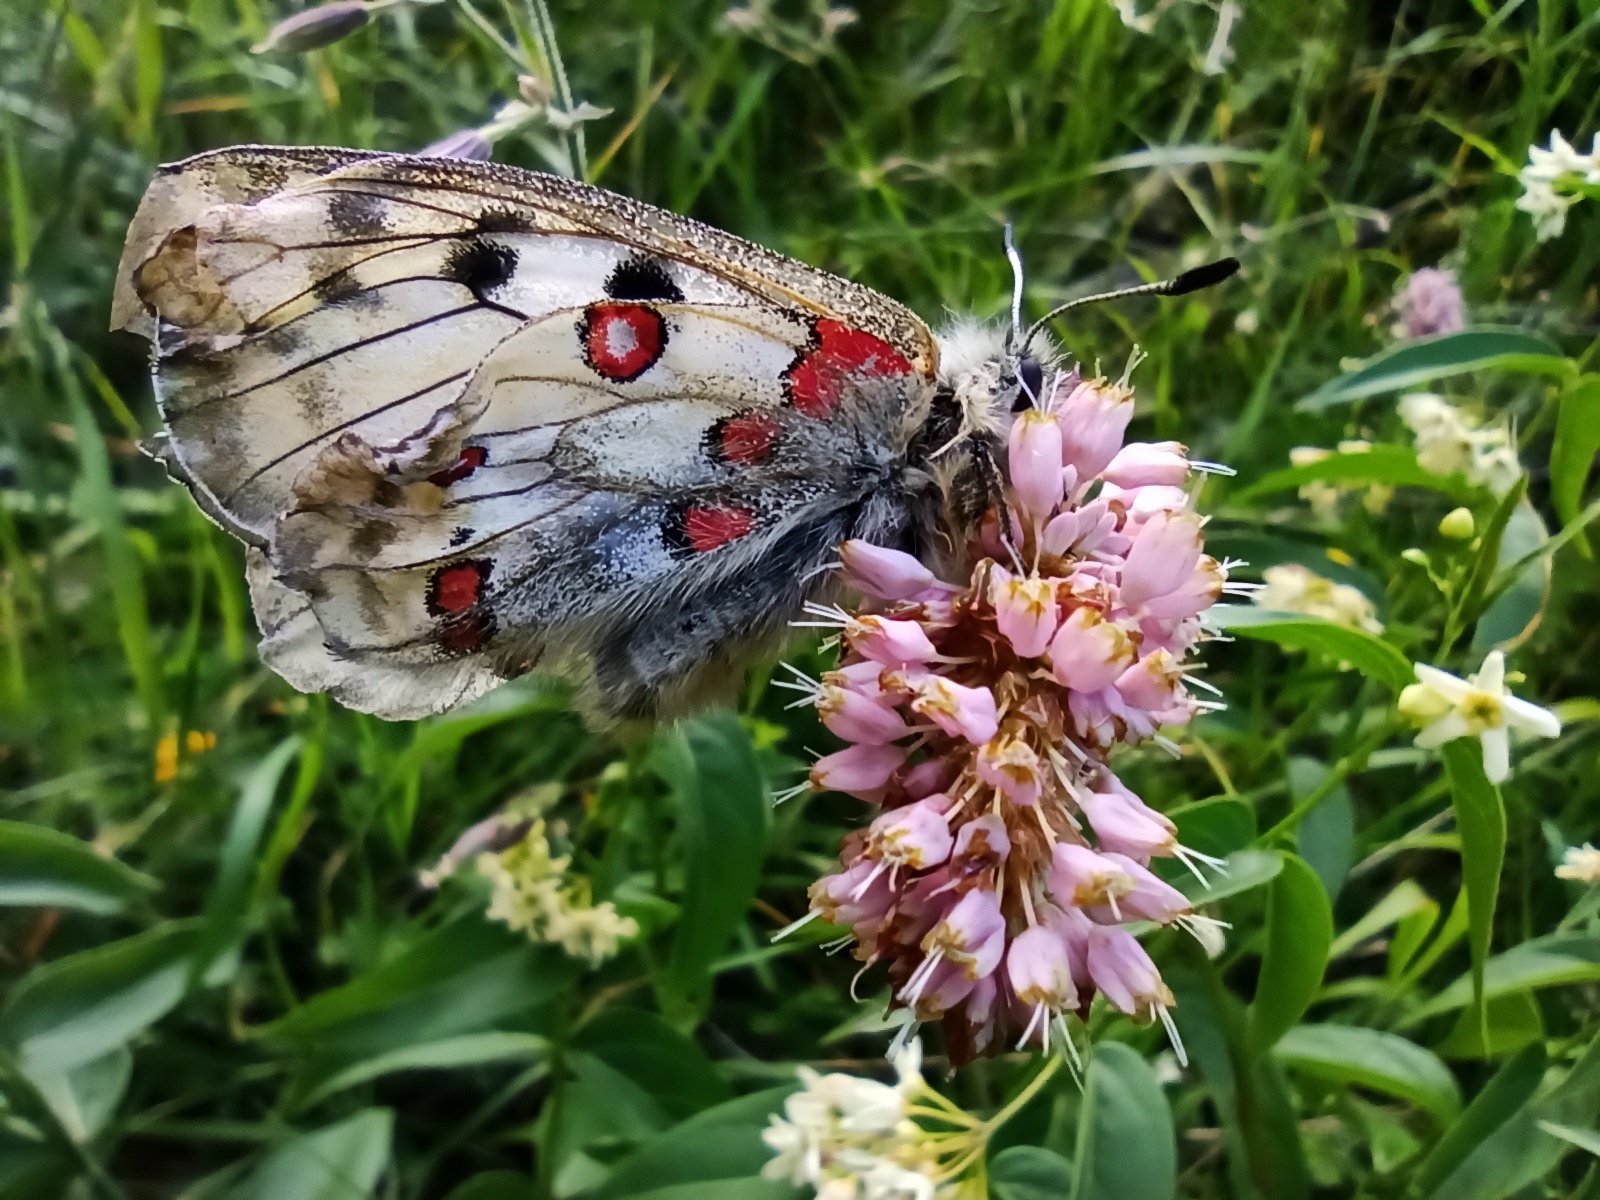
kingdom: Animalia
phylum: Arthropoda
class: Insecta
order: Lepidoptera
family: Papilionidae
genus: Parnassius
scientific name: Parnassius apollo
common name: Apollo
